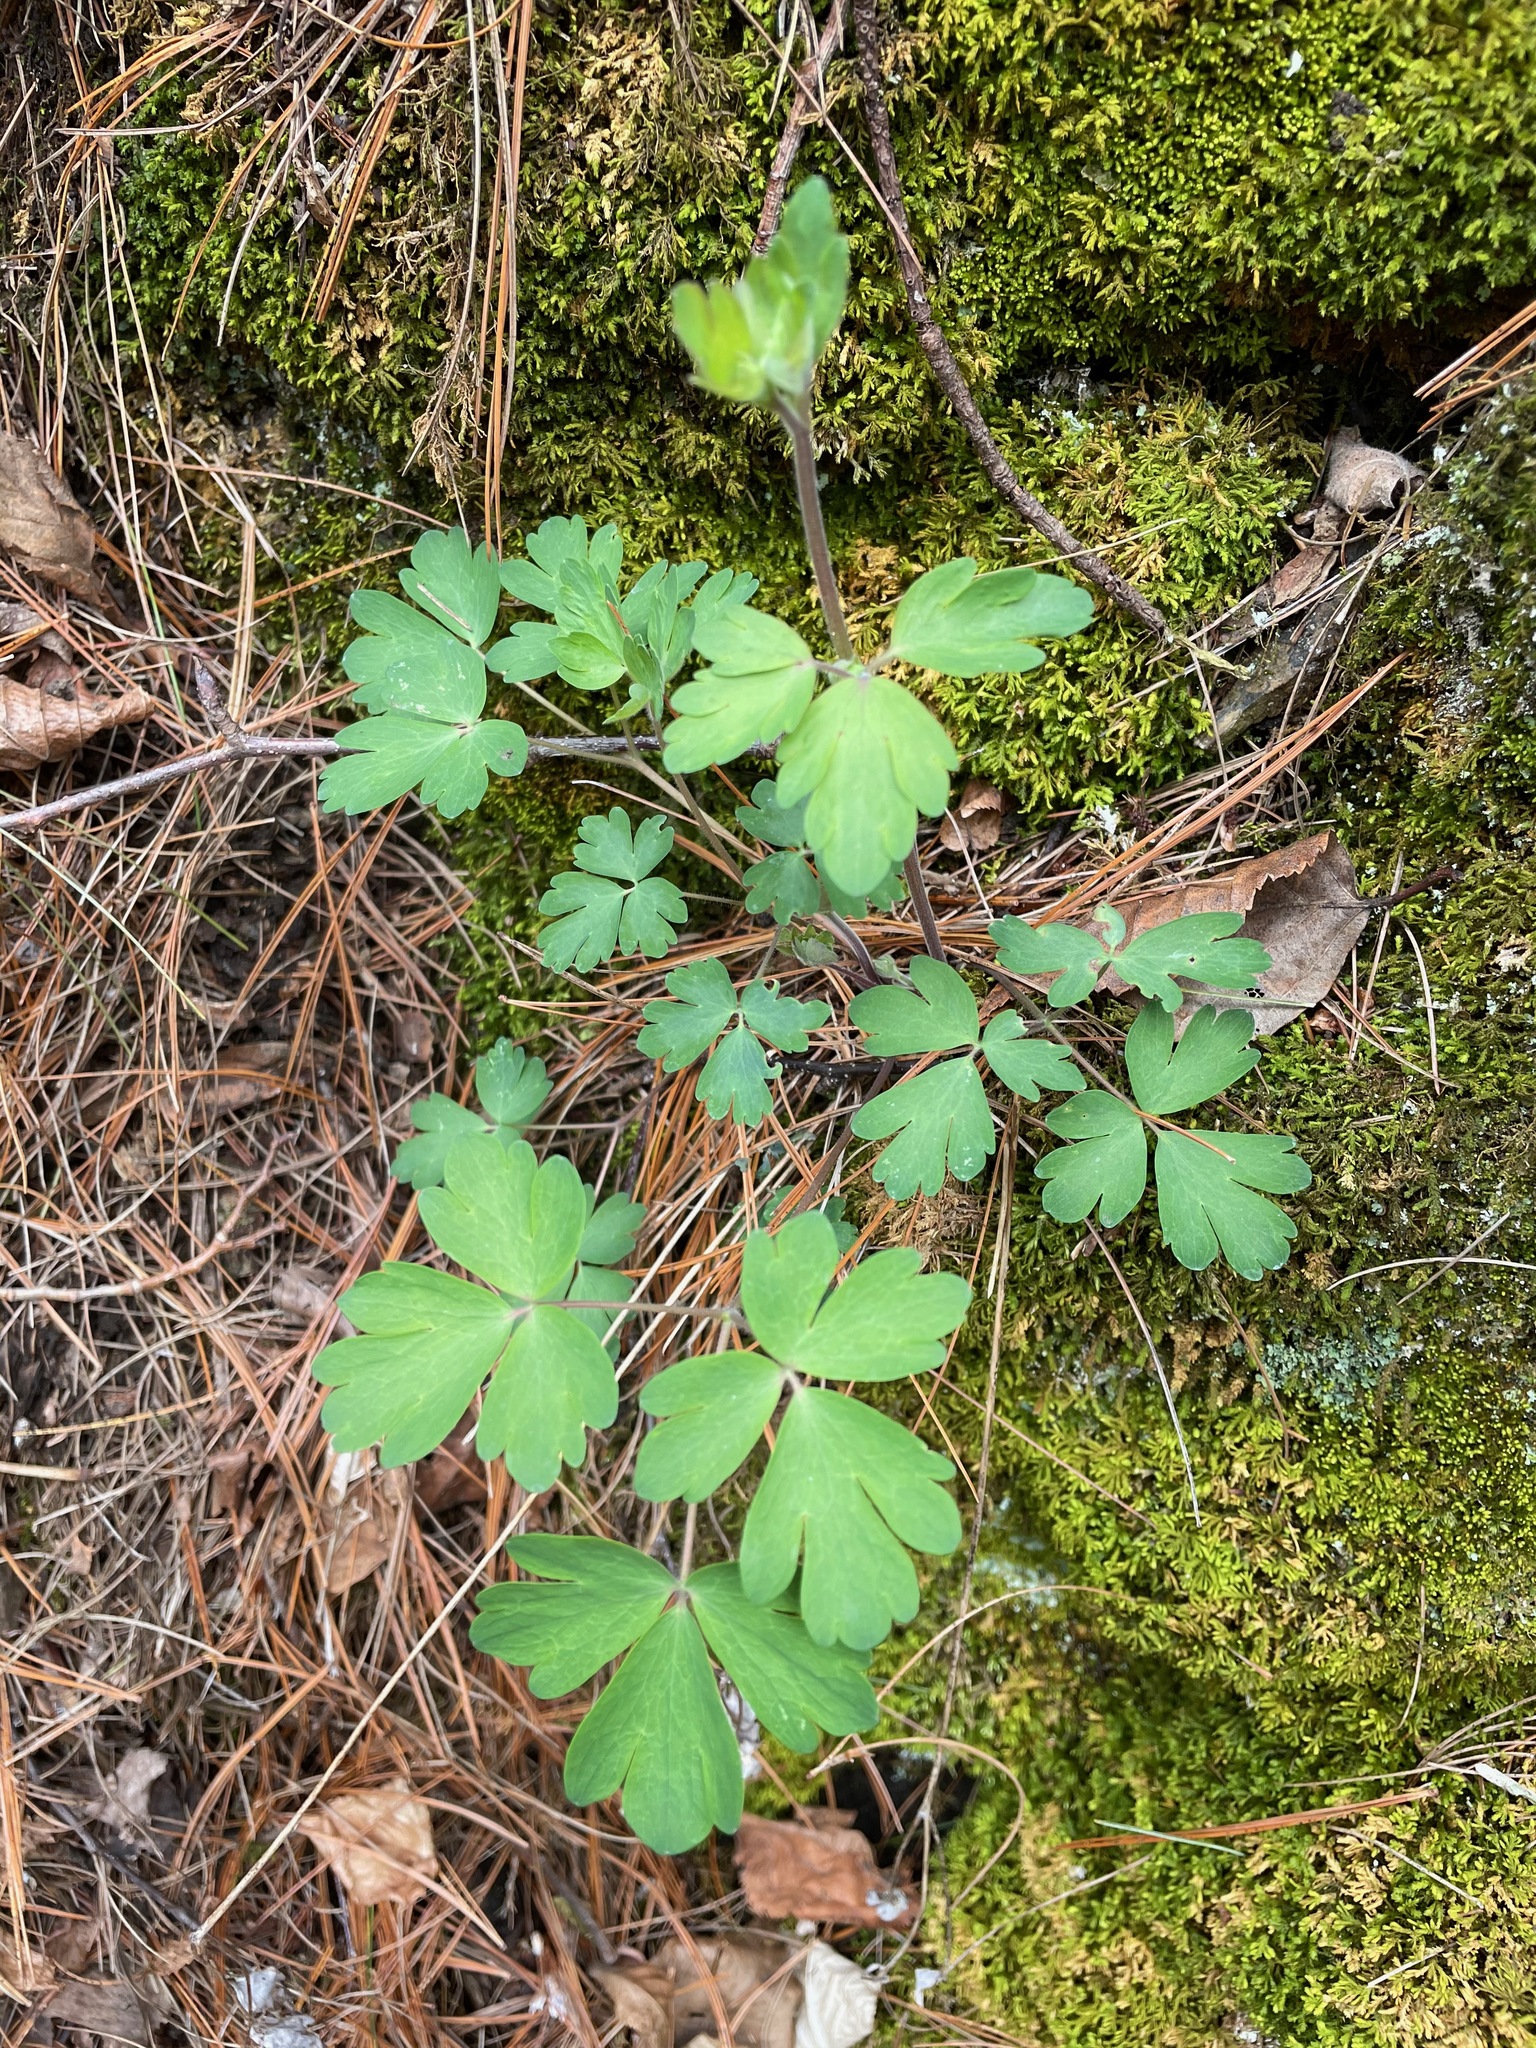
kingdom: Plantae
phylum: Tracheophyta
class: Magnoliopsida
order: Ranunculales
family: Ranunculaceae
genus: Aquilegia
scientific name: Aquilegia canadensis
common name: American columbine
